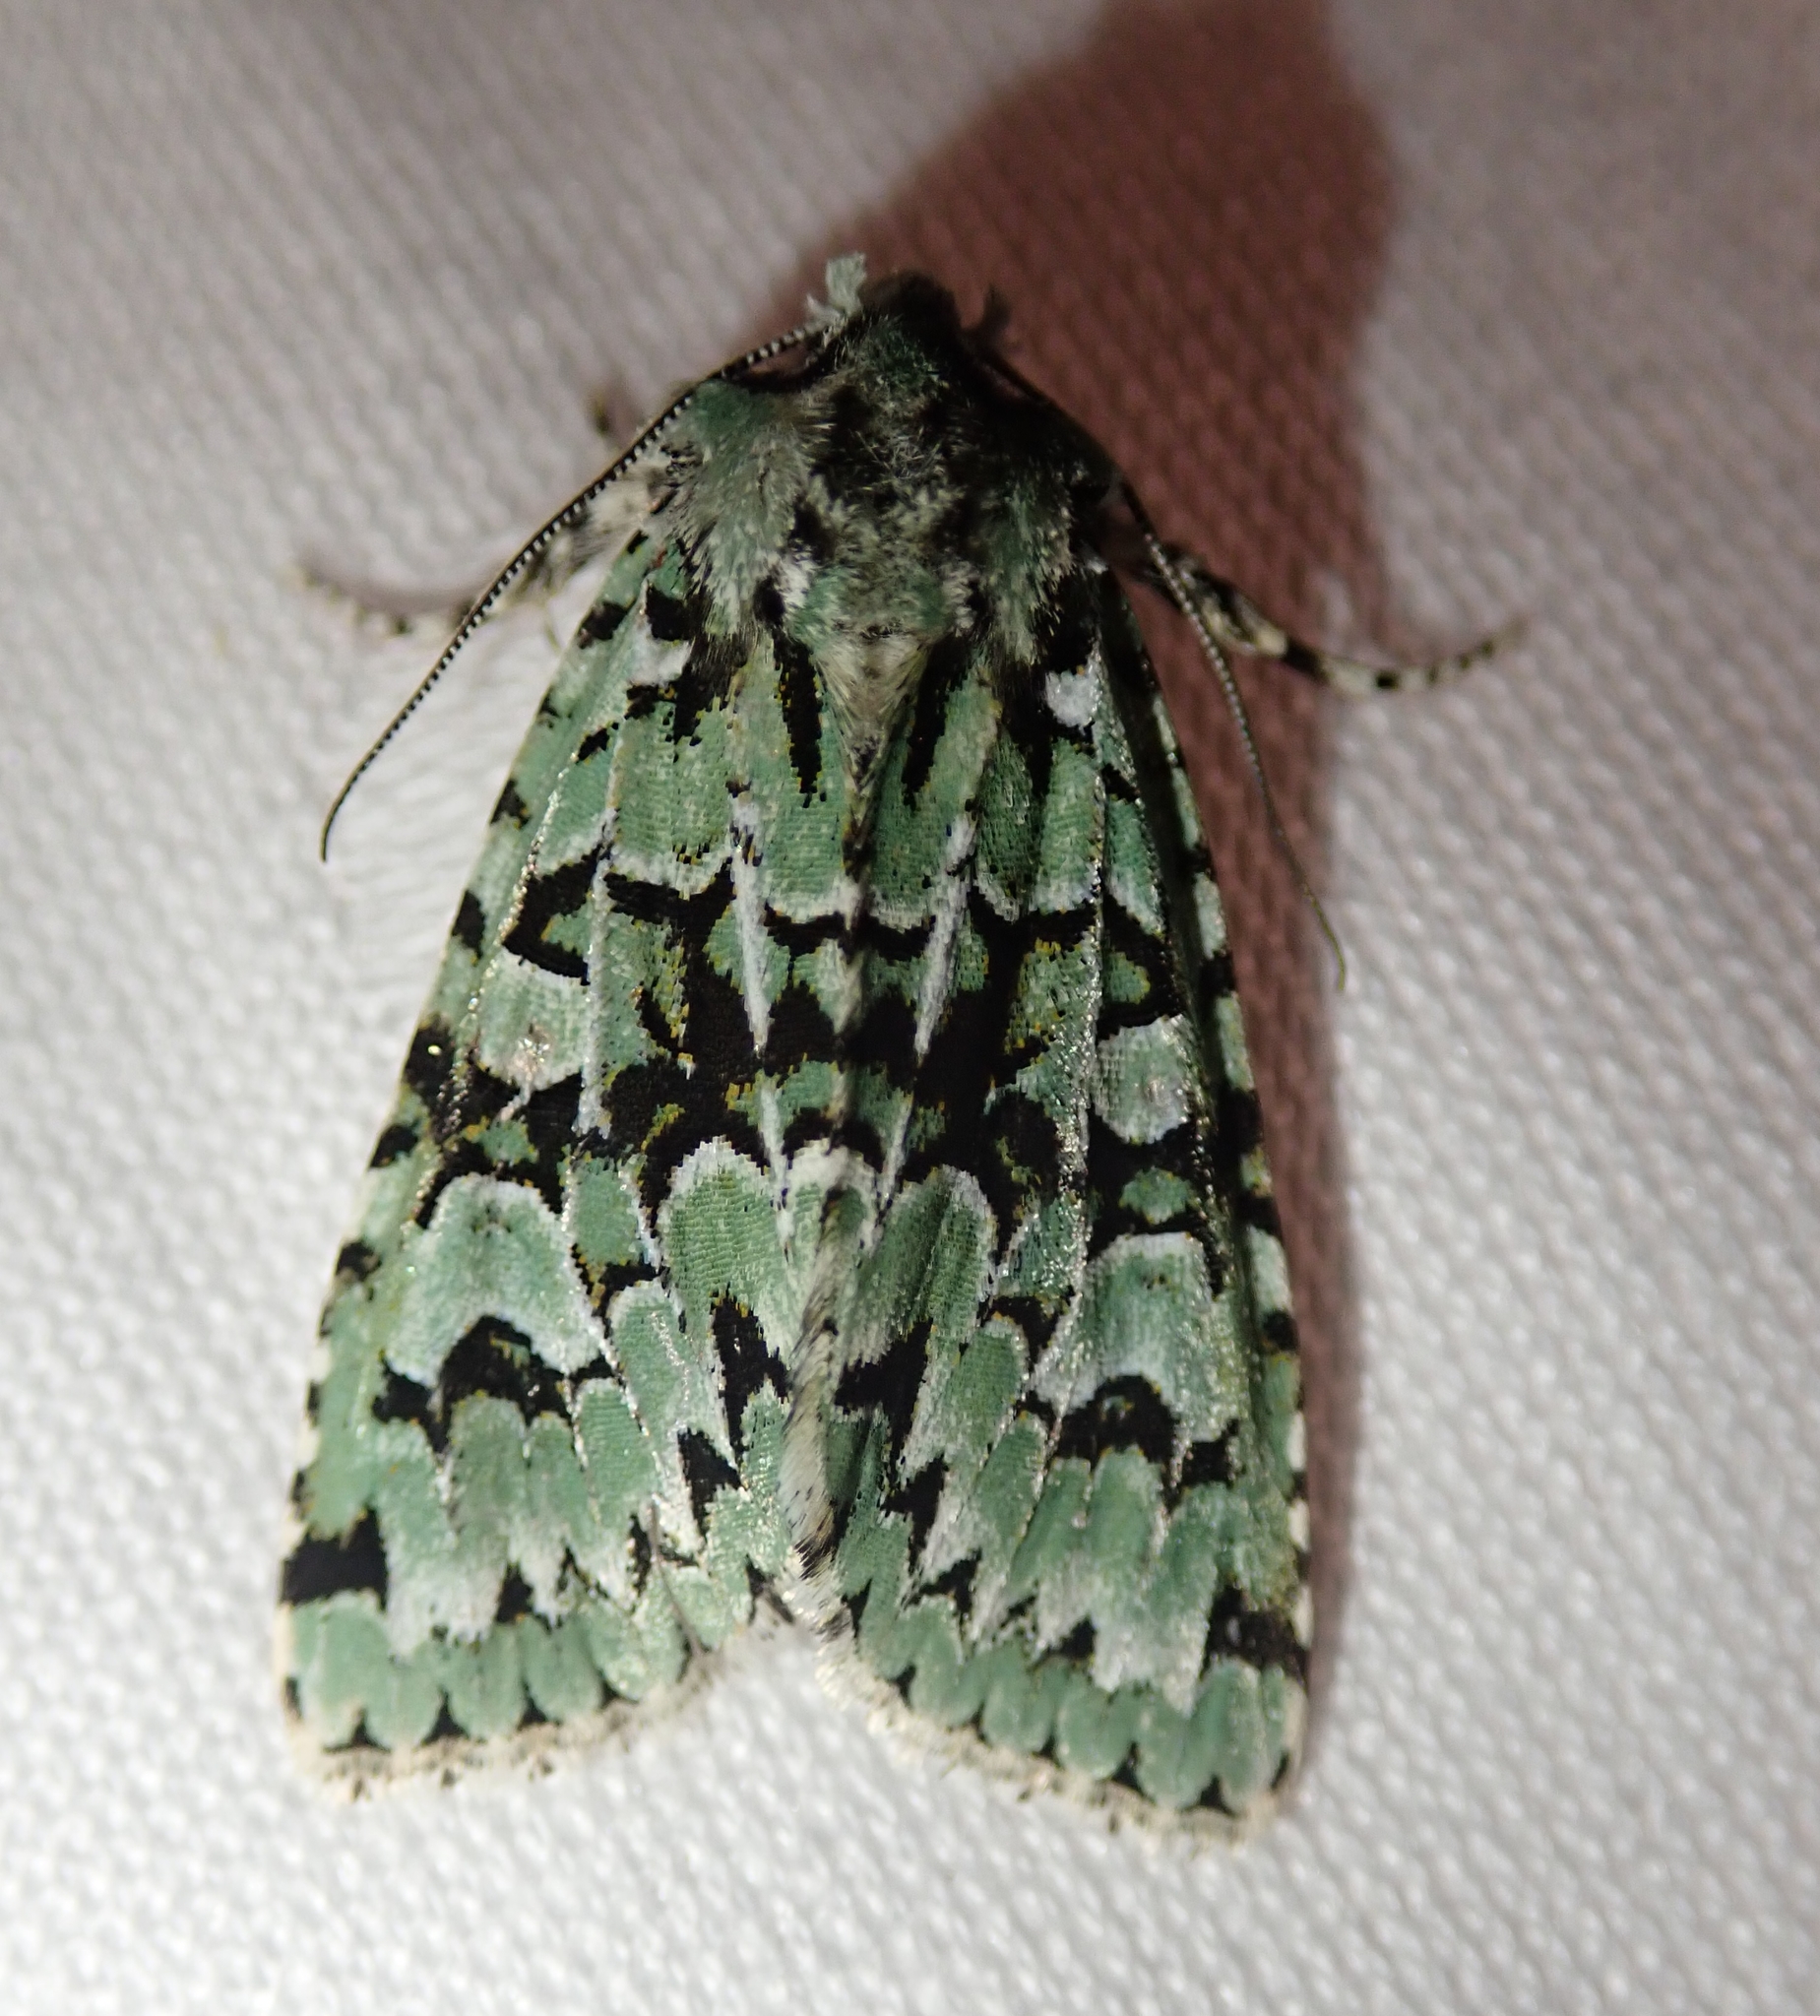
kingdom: Animalia
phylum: Arthropoda
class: Insecta
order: Lepidoptera
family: Noctuidae
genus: Griposia
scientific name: Griposia aprilina
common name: Merveille du jour
